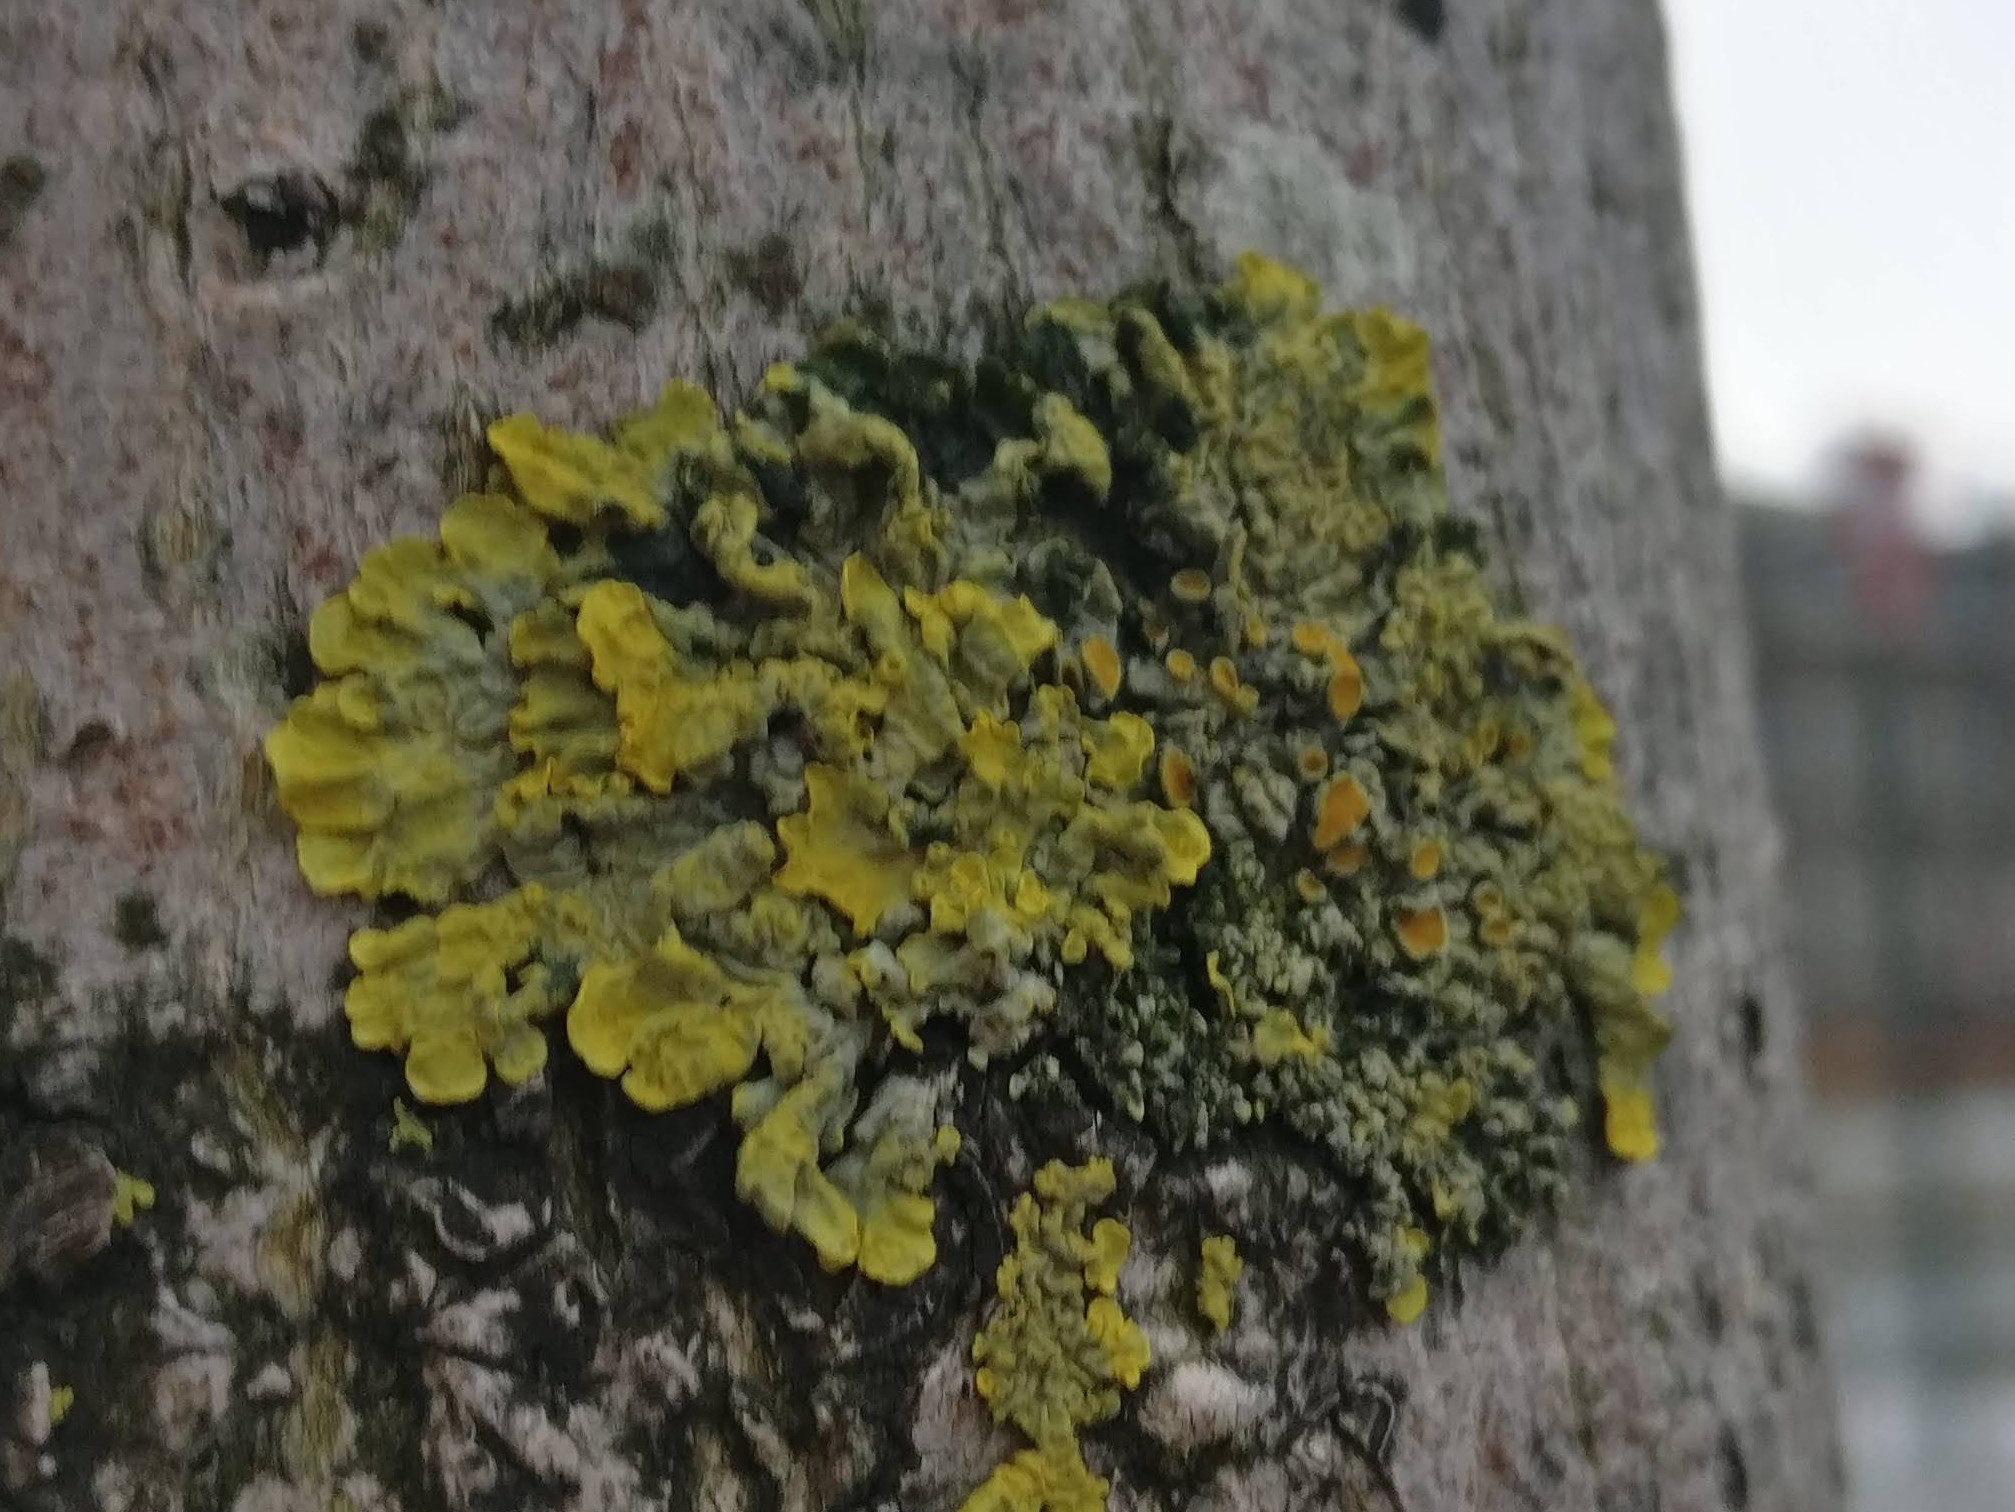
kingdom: Fungi
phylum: Ascomycota
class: Lecanoromycetes
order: Teloschistales
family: Teloschistaceae
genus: Xanthoria
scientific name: Xanthoria parietina
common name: Common orange lichen
